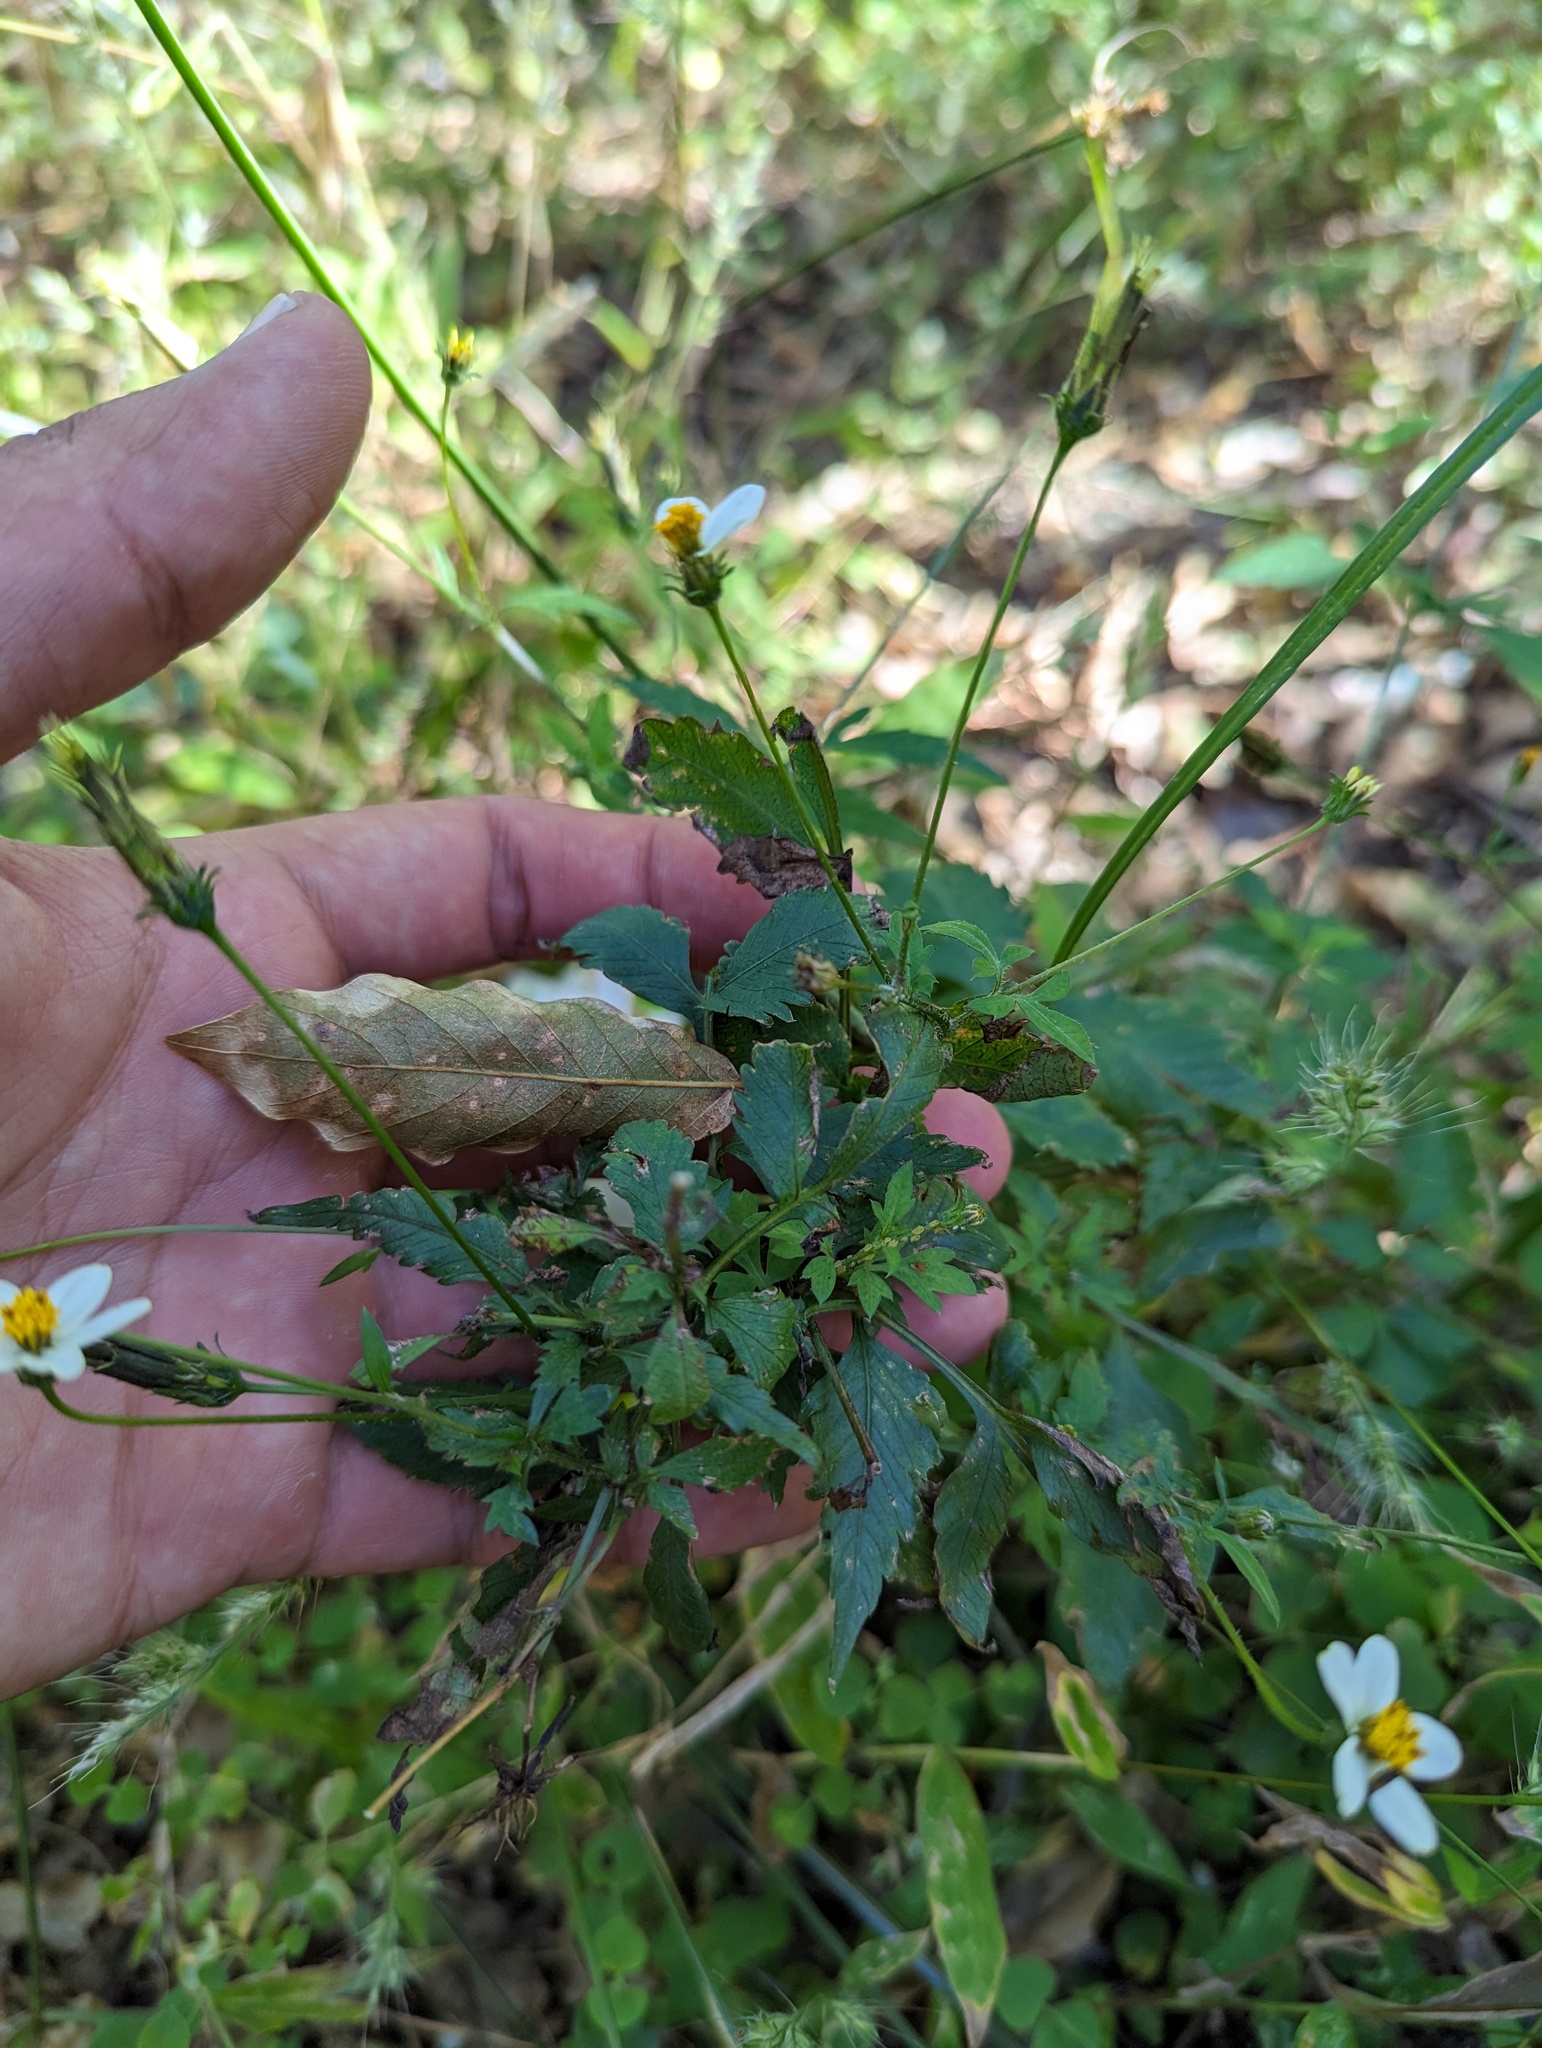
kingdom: Plantae
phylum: Tracheophyta
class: Magnoliopsida
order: Asterales
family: Asteraceae
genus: Bidens
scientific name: Bidens bigelovii
